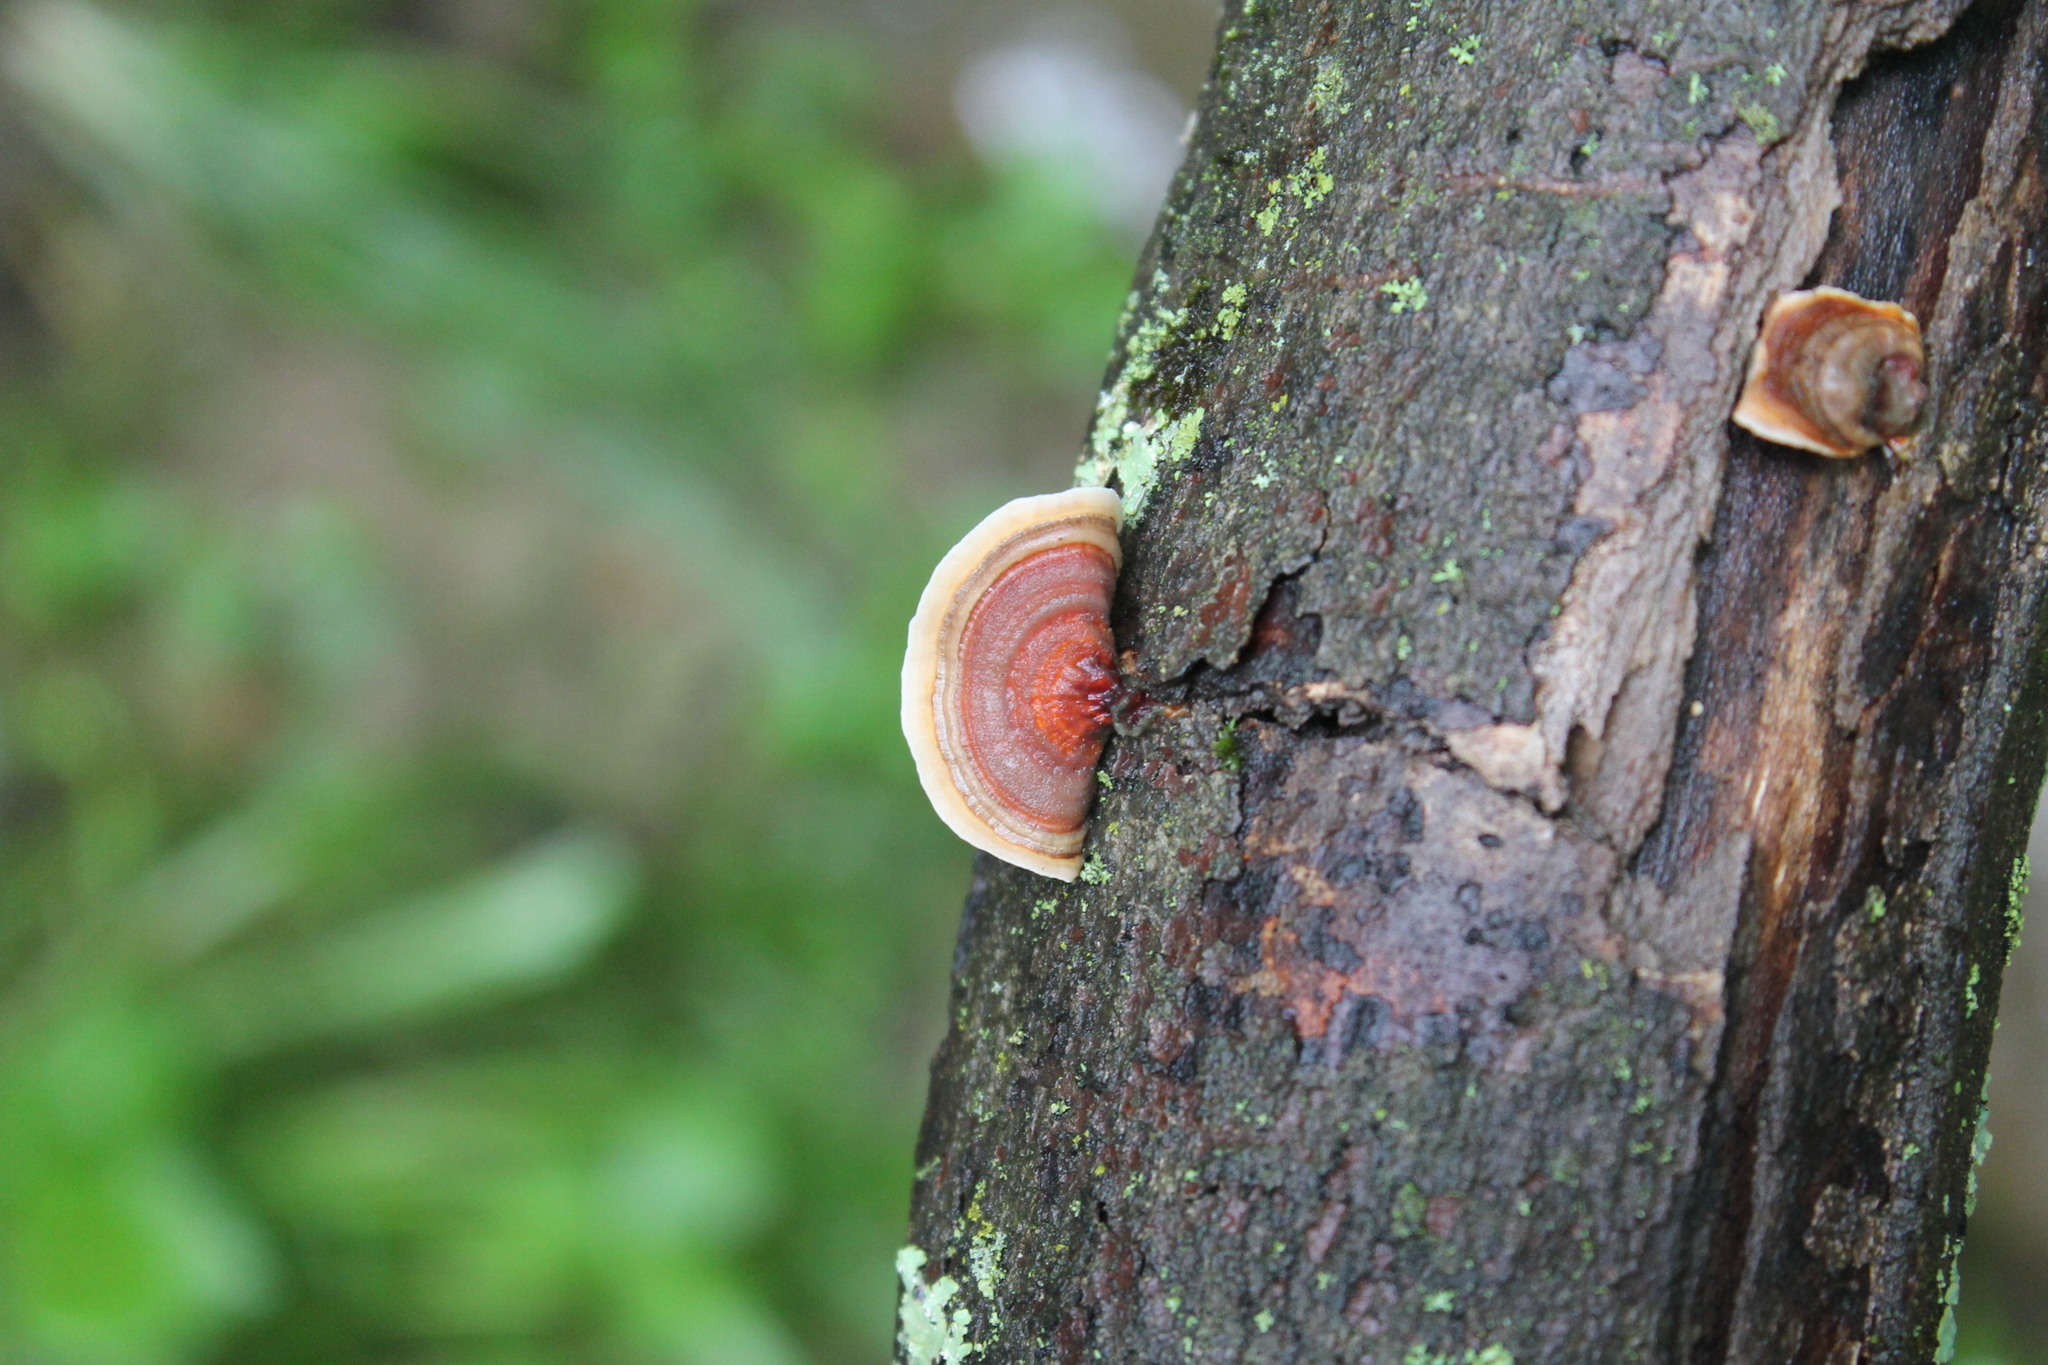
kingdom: Fungi
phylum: Basidiomycota
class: Agaricomycetes
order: Russulales
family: Stereaceae
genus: Stereum
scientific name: Stereum lobatum
